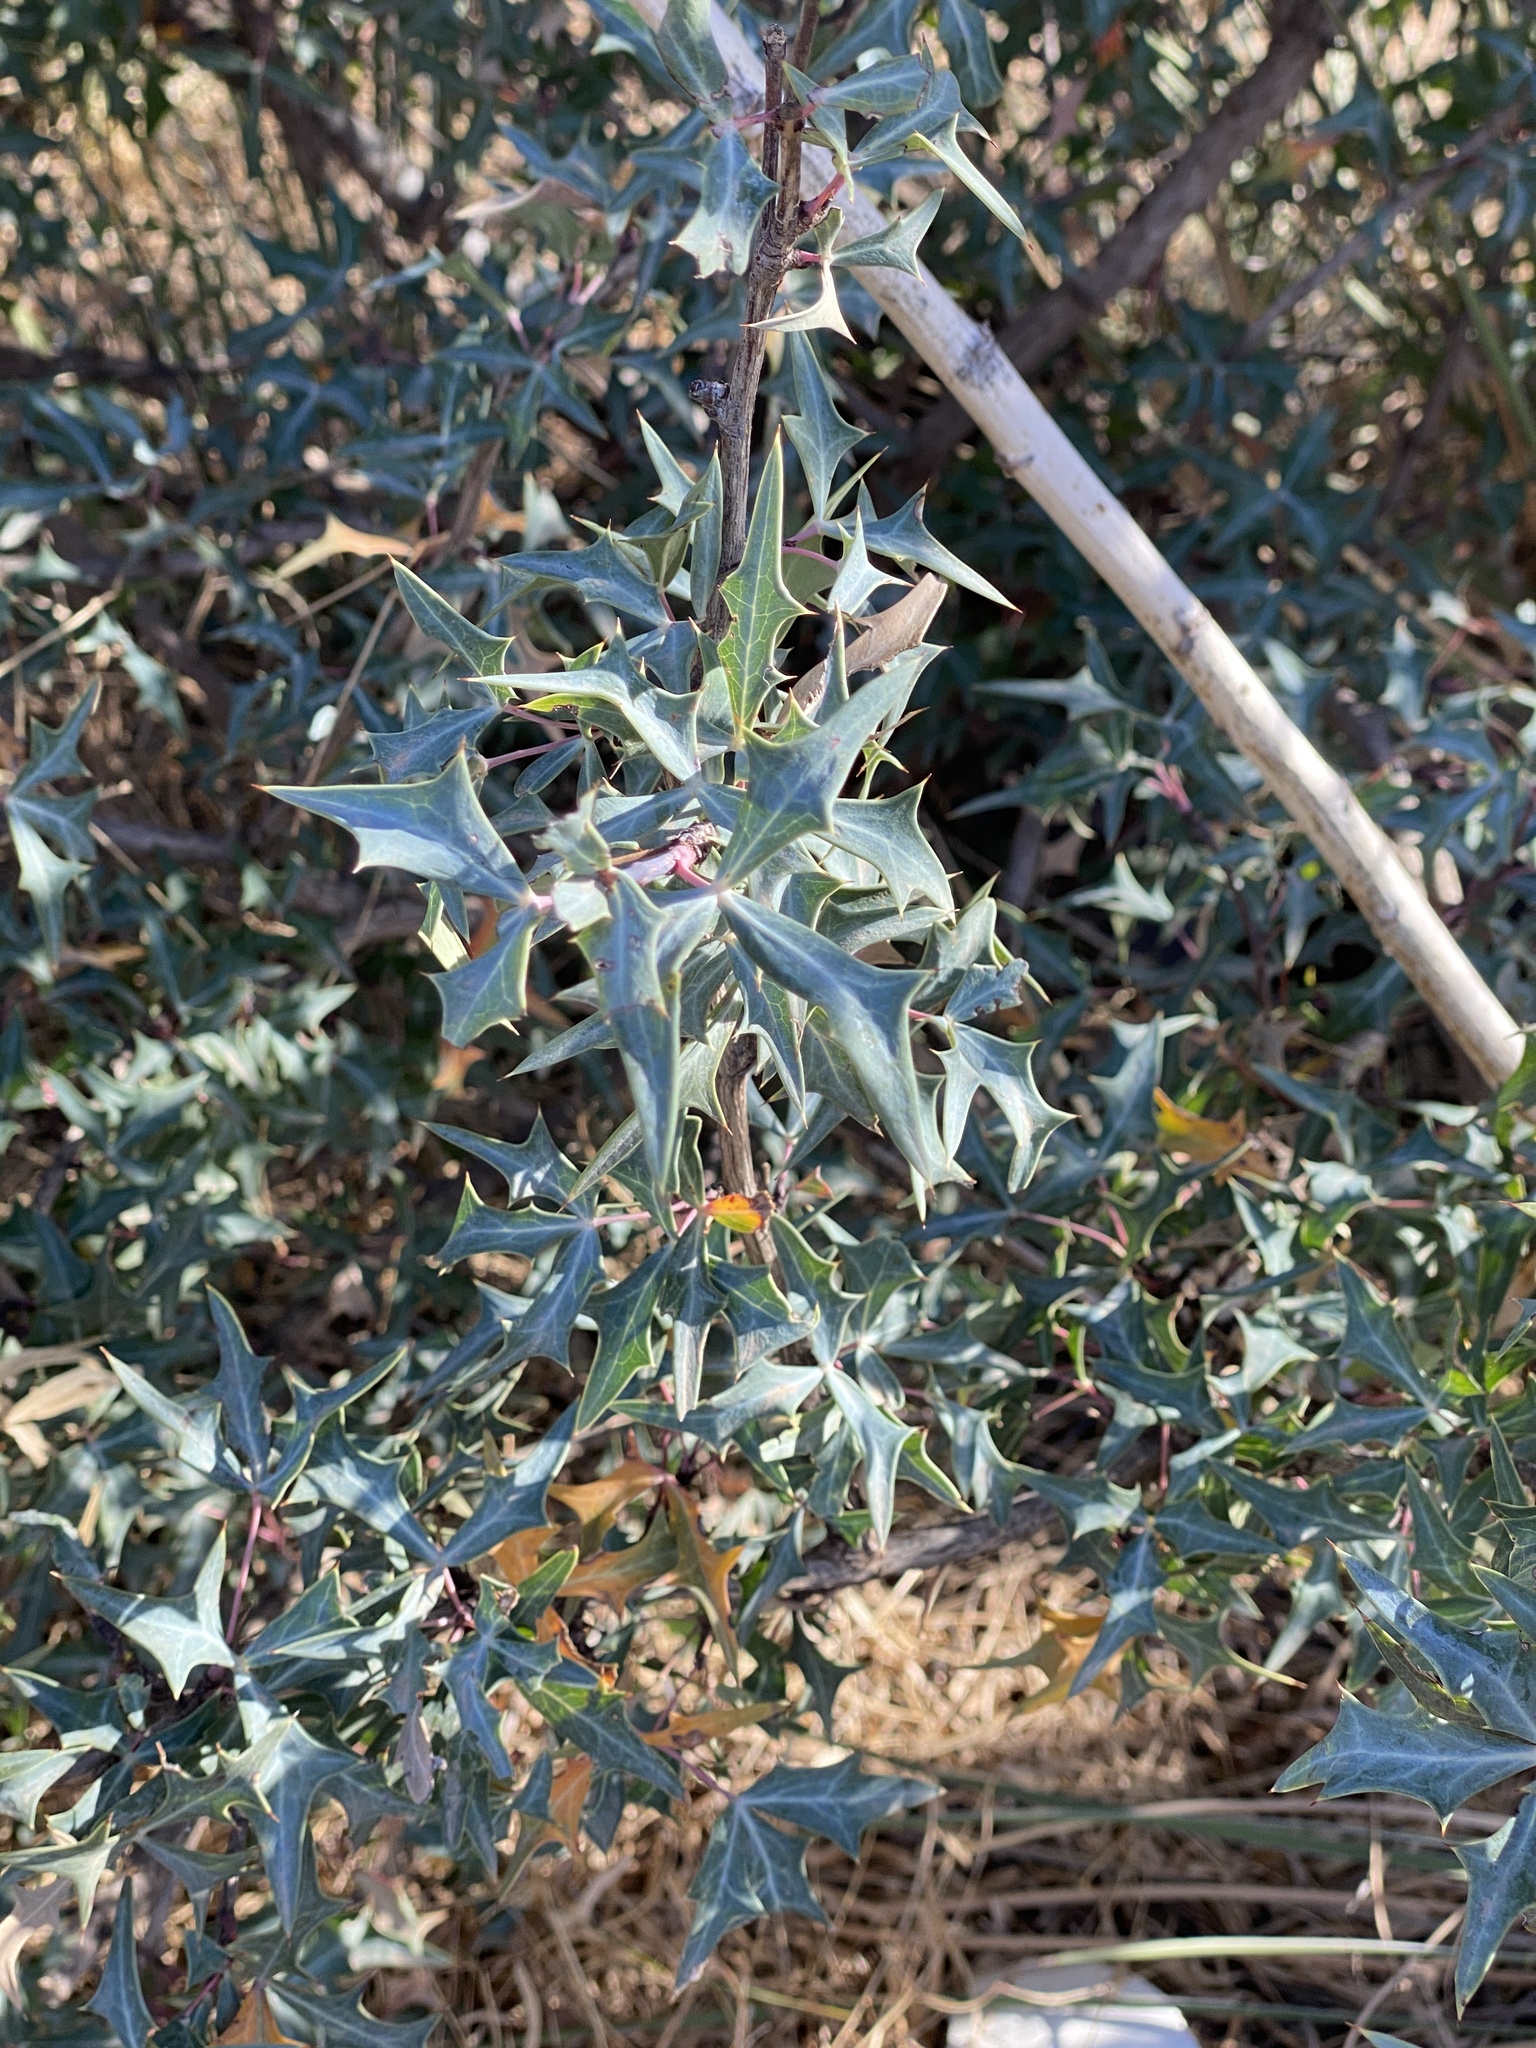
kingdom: Plantae
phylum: Tracheophyta
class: Magnoliopsida
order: Ranunculales
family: Berberidaceae
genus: Alloberberis
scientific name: Alloberberis trifoliolata
